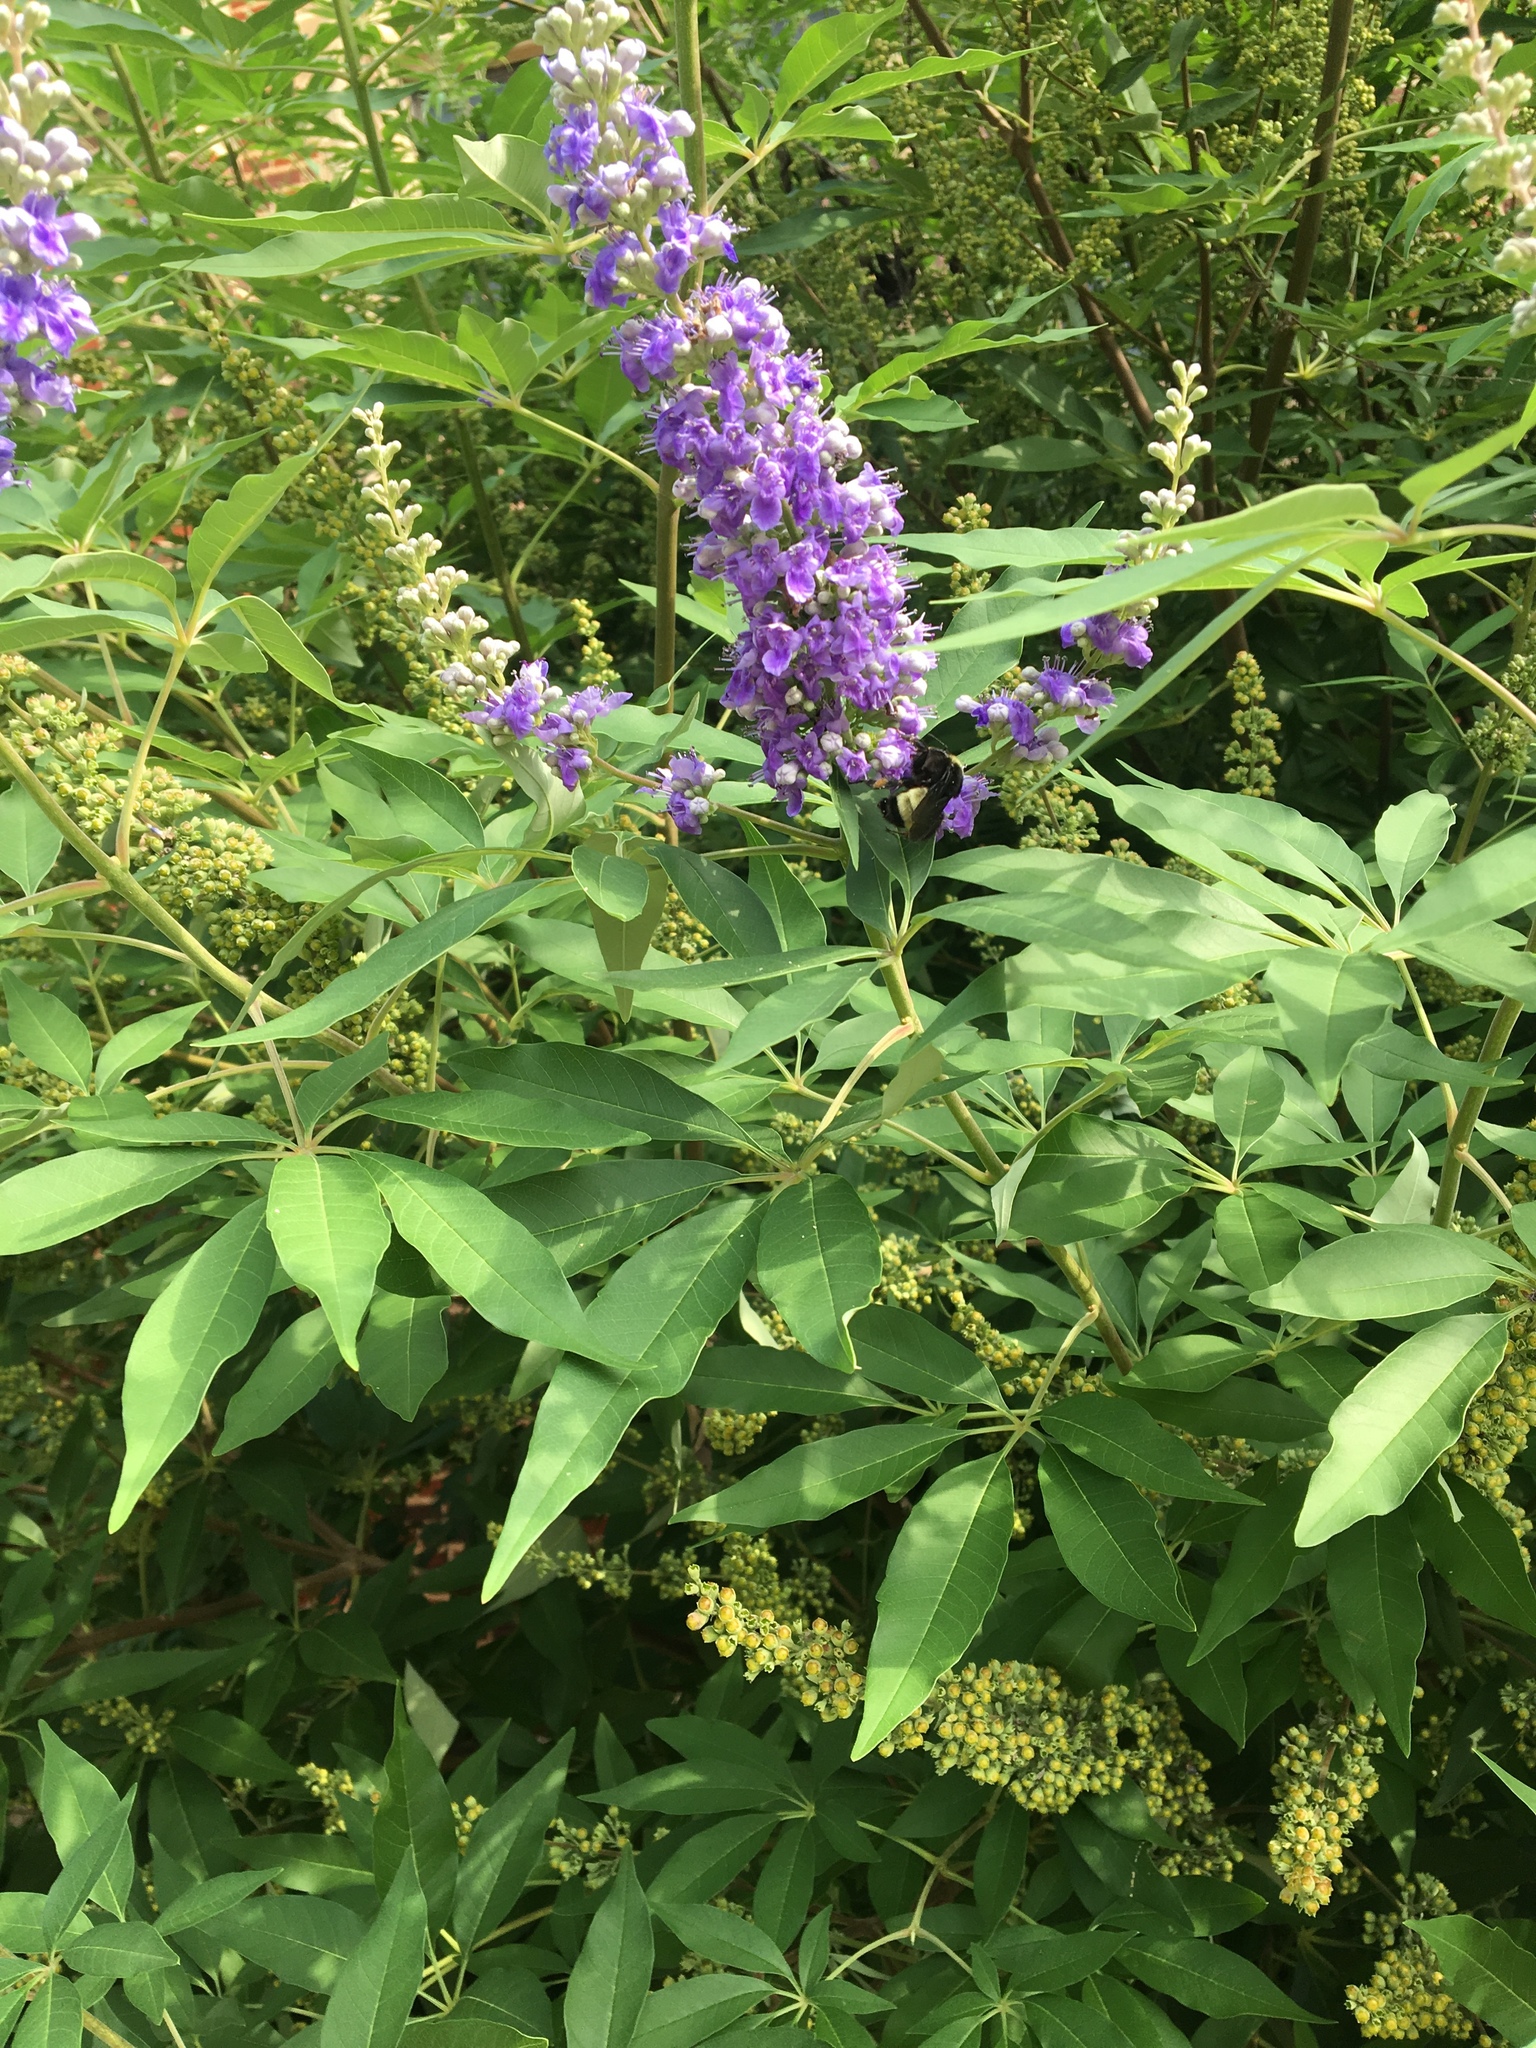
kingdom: Plantae
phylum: Tracheophyta
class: Magnoliopsida
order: Lamiales
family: Lamiaceae
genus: Vitex
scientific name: Vitex agnus-castus
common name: Chasteberry
